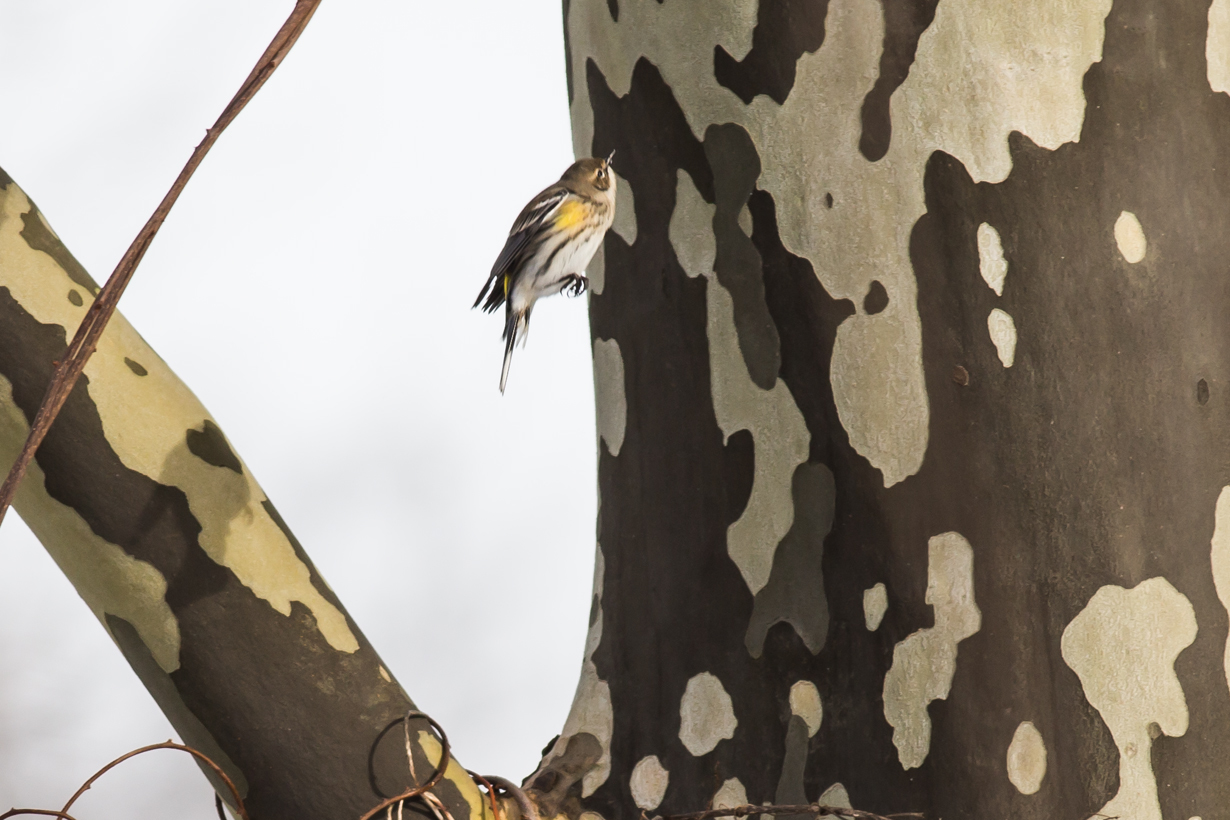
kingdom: Animalia
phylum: Chordata
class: Aves
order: Passeriformes
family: Parulidae
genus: Setophaga
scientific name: Setophaga coronata
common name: Myrtle warbler
